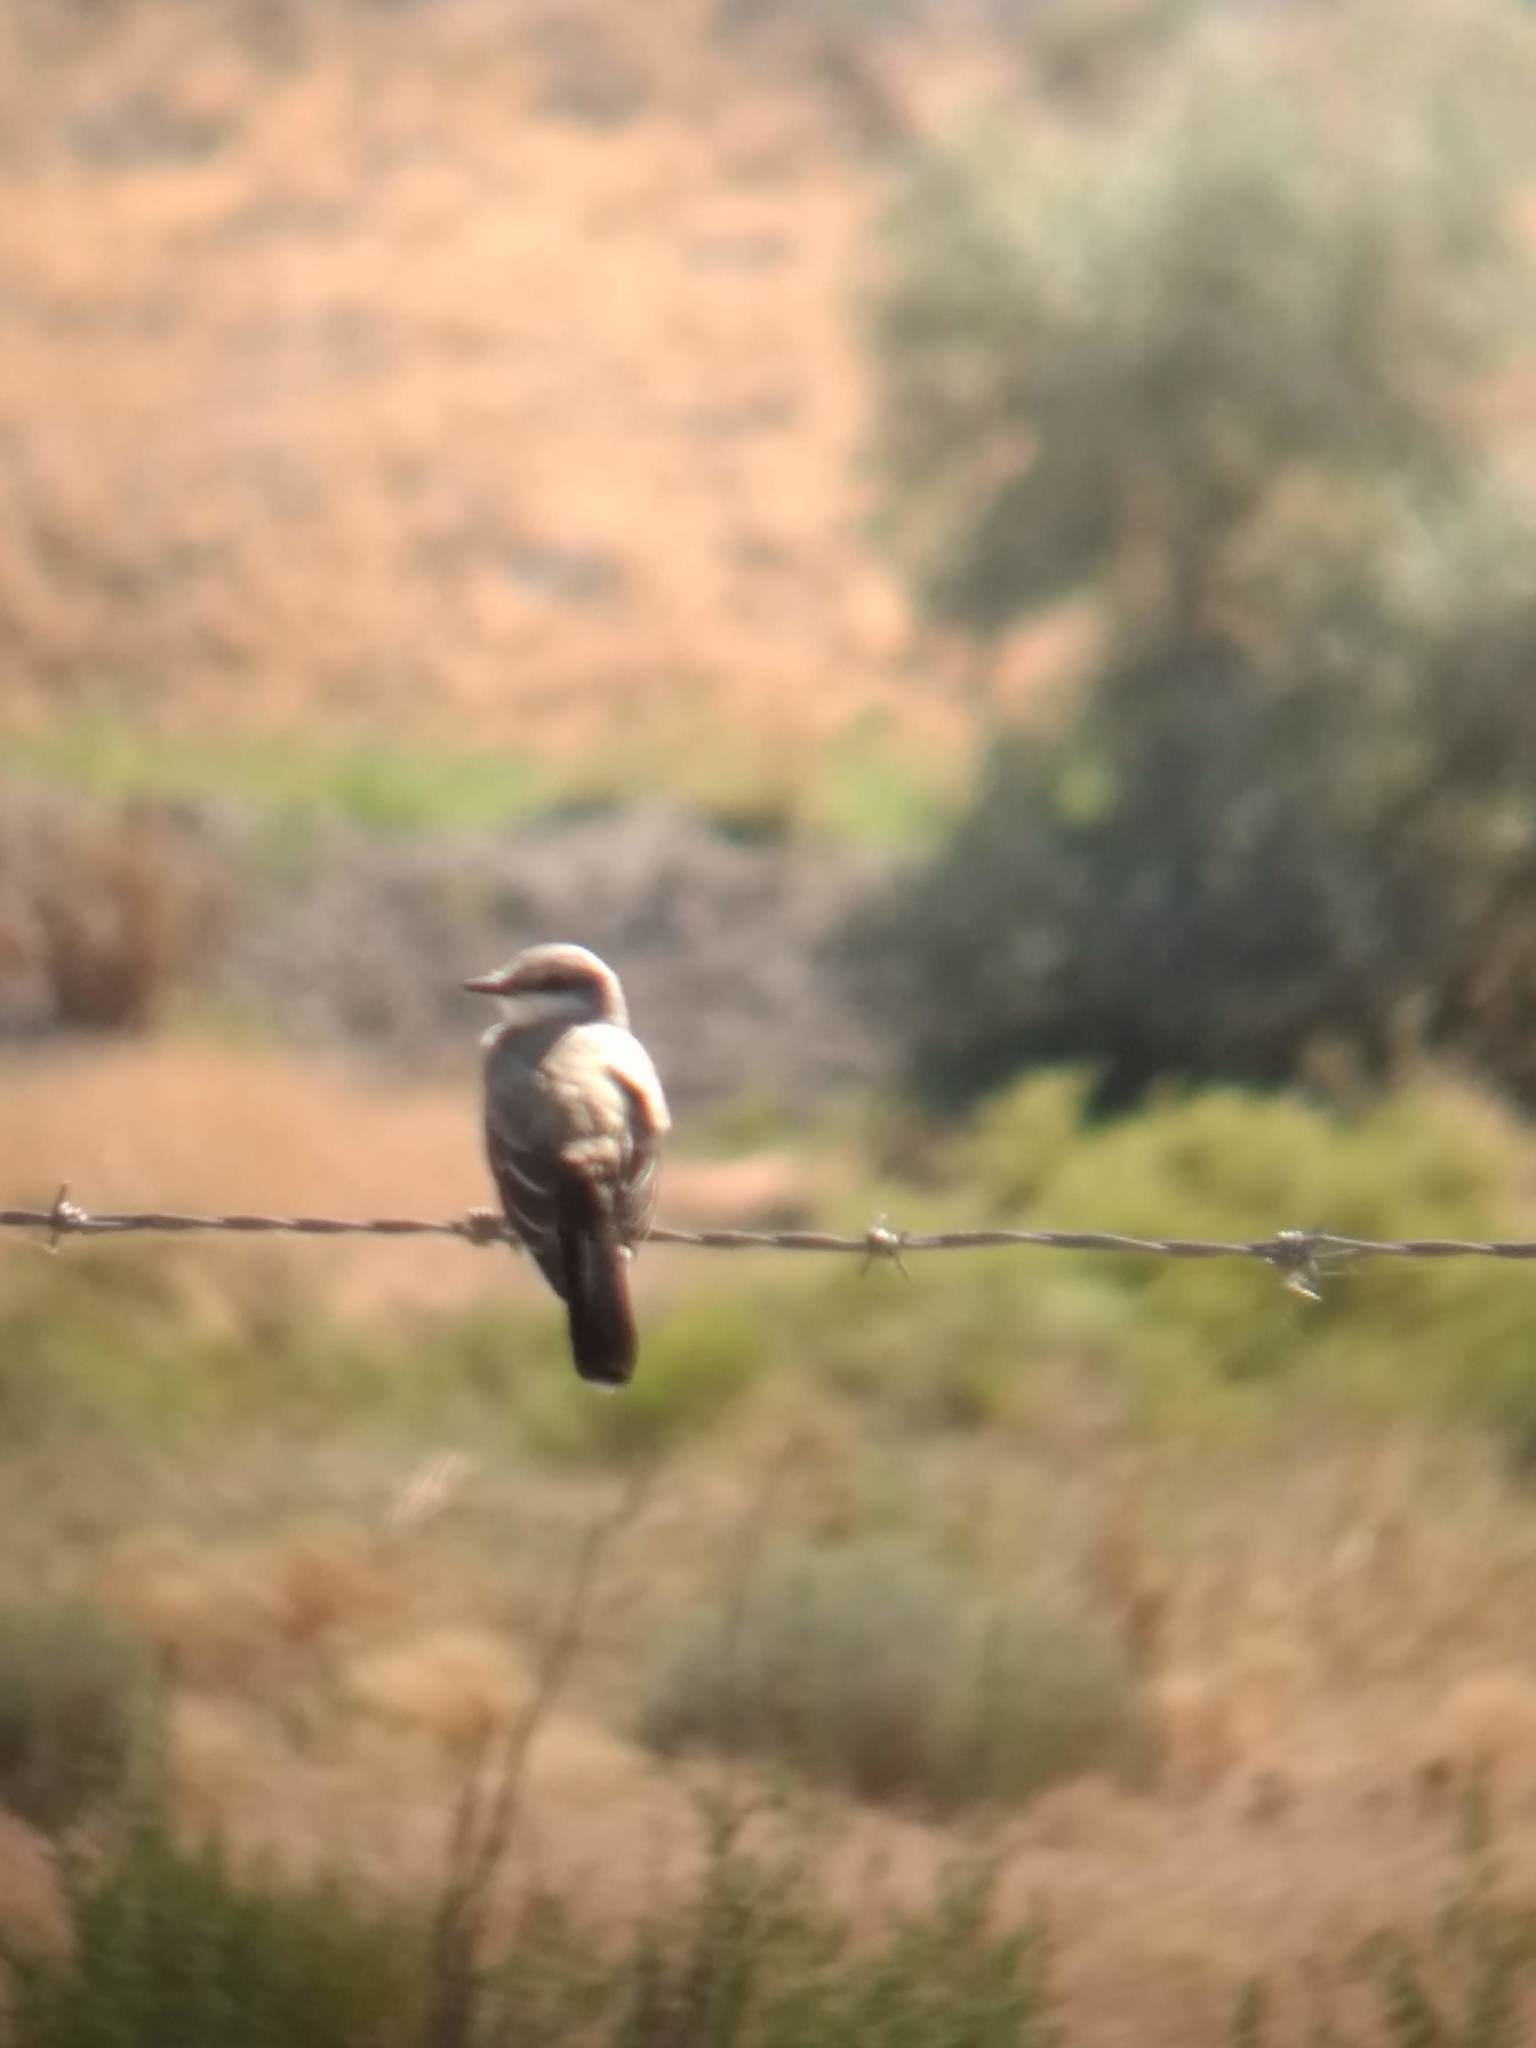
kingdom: Animalia
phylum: Chordata
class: Aves
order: Passeriformes
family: Tyrannidae
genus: Tyrannus
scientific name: Tyrannus verticalis
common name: Western kingbird
